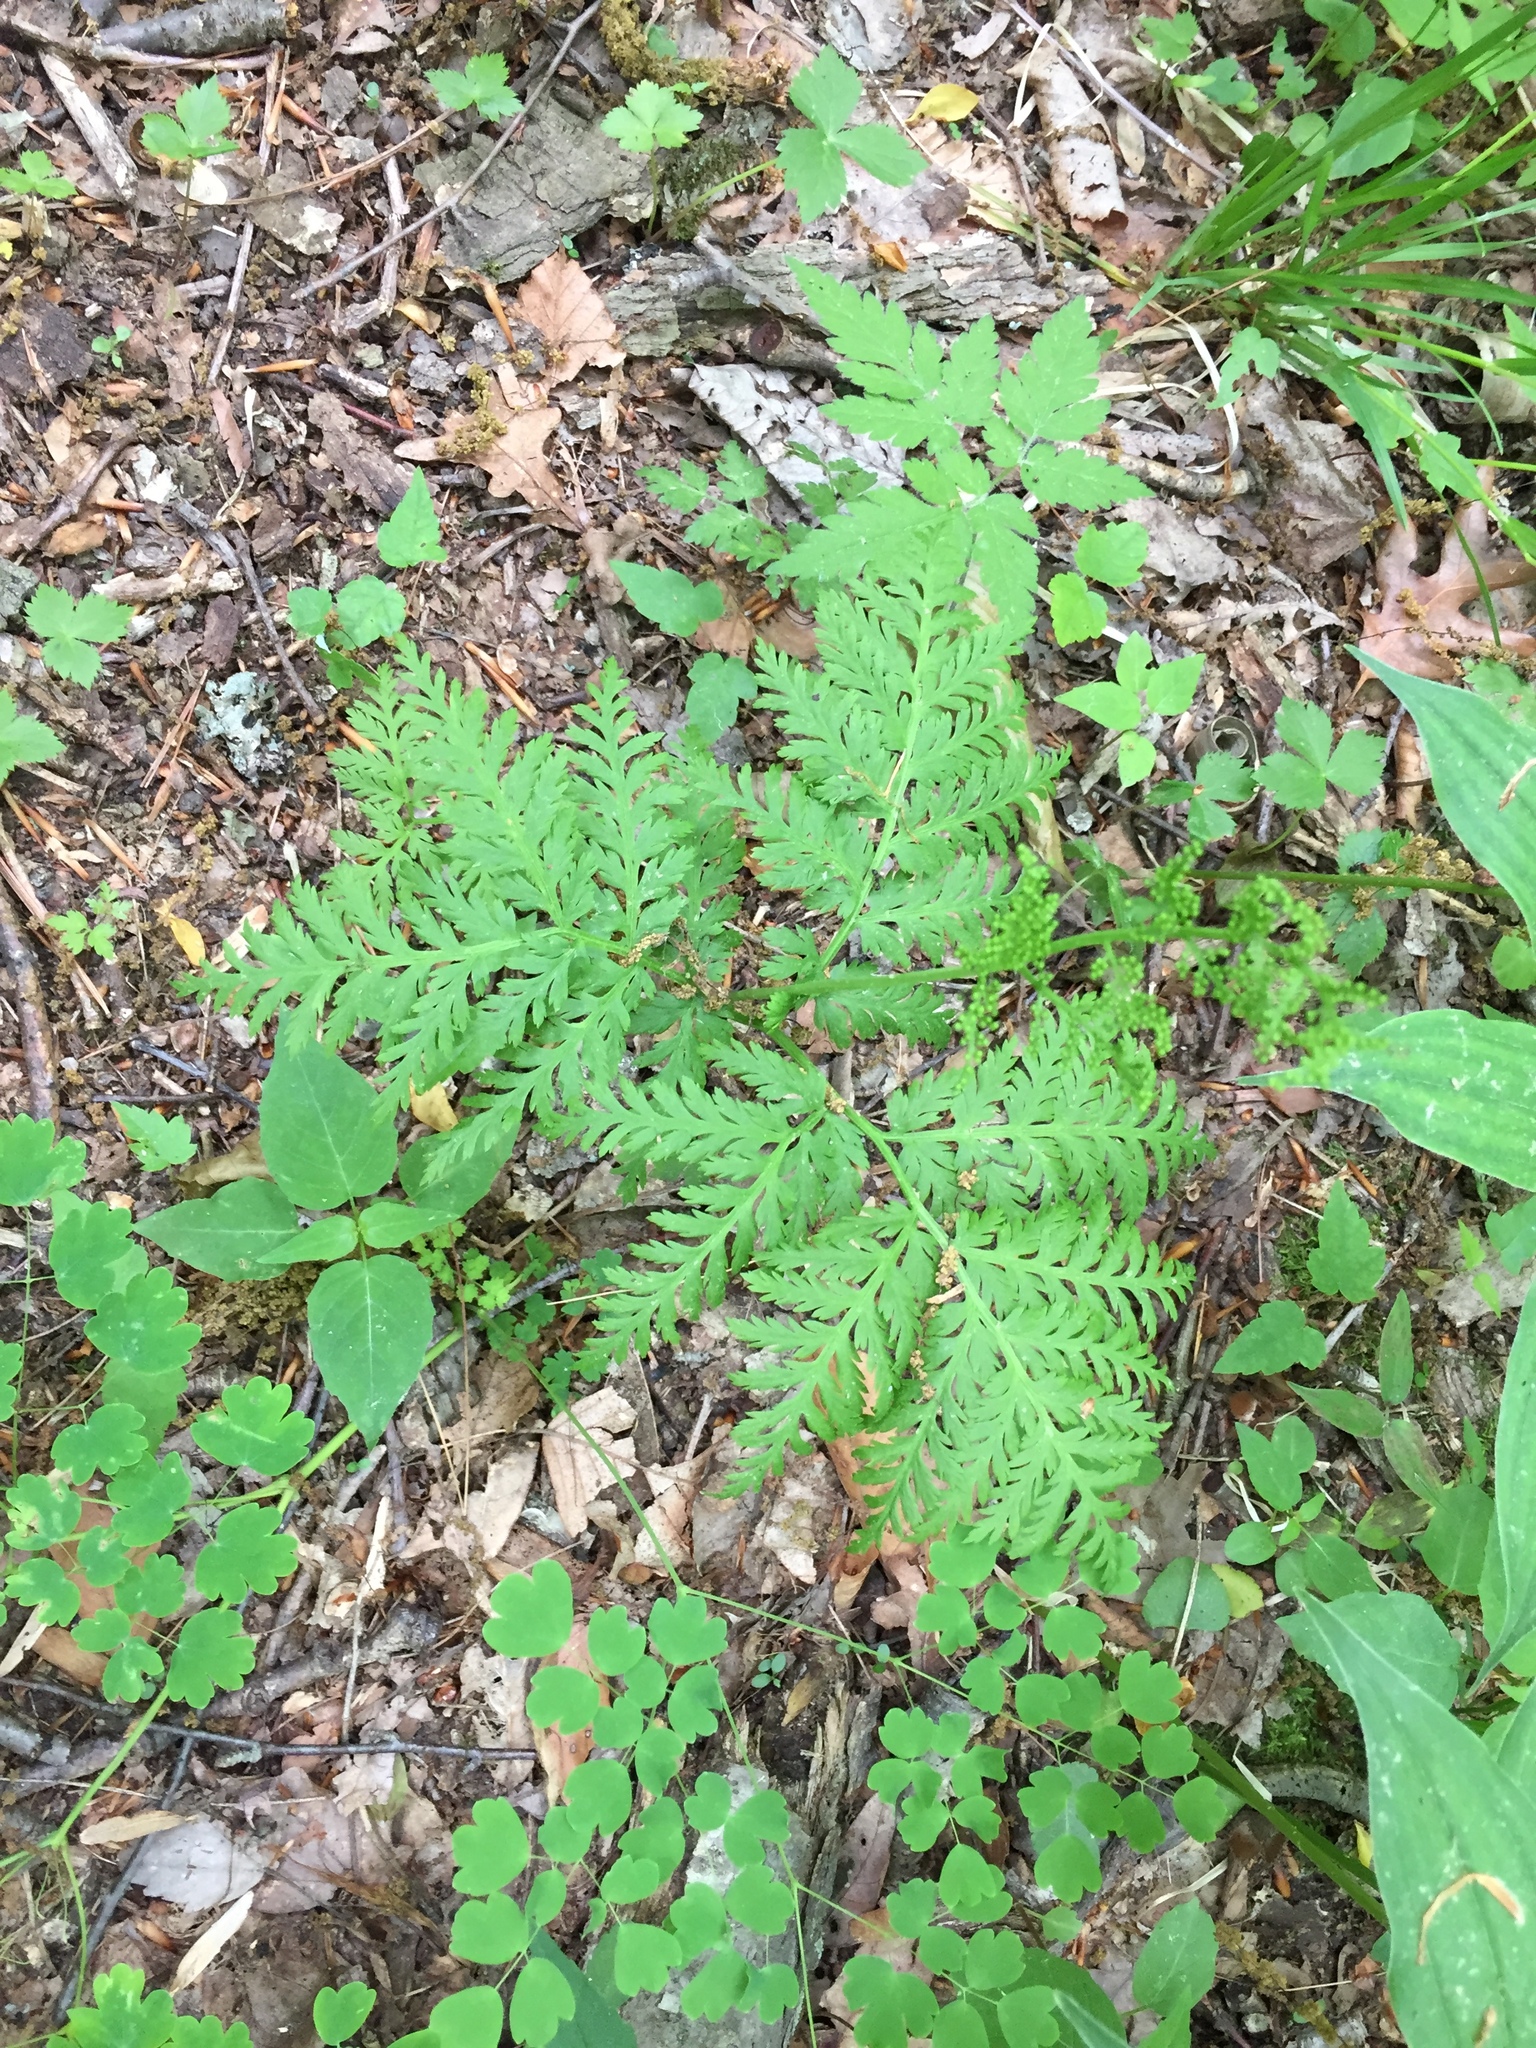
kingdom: Plantae
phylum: Tracheophyta
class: Polypodiopsida
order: Ophioglossales
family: Ophioglossaceae
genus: Botrypus
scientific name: Botrypus virginianus
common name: Common grapefern
